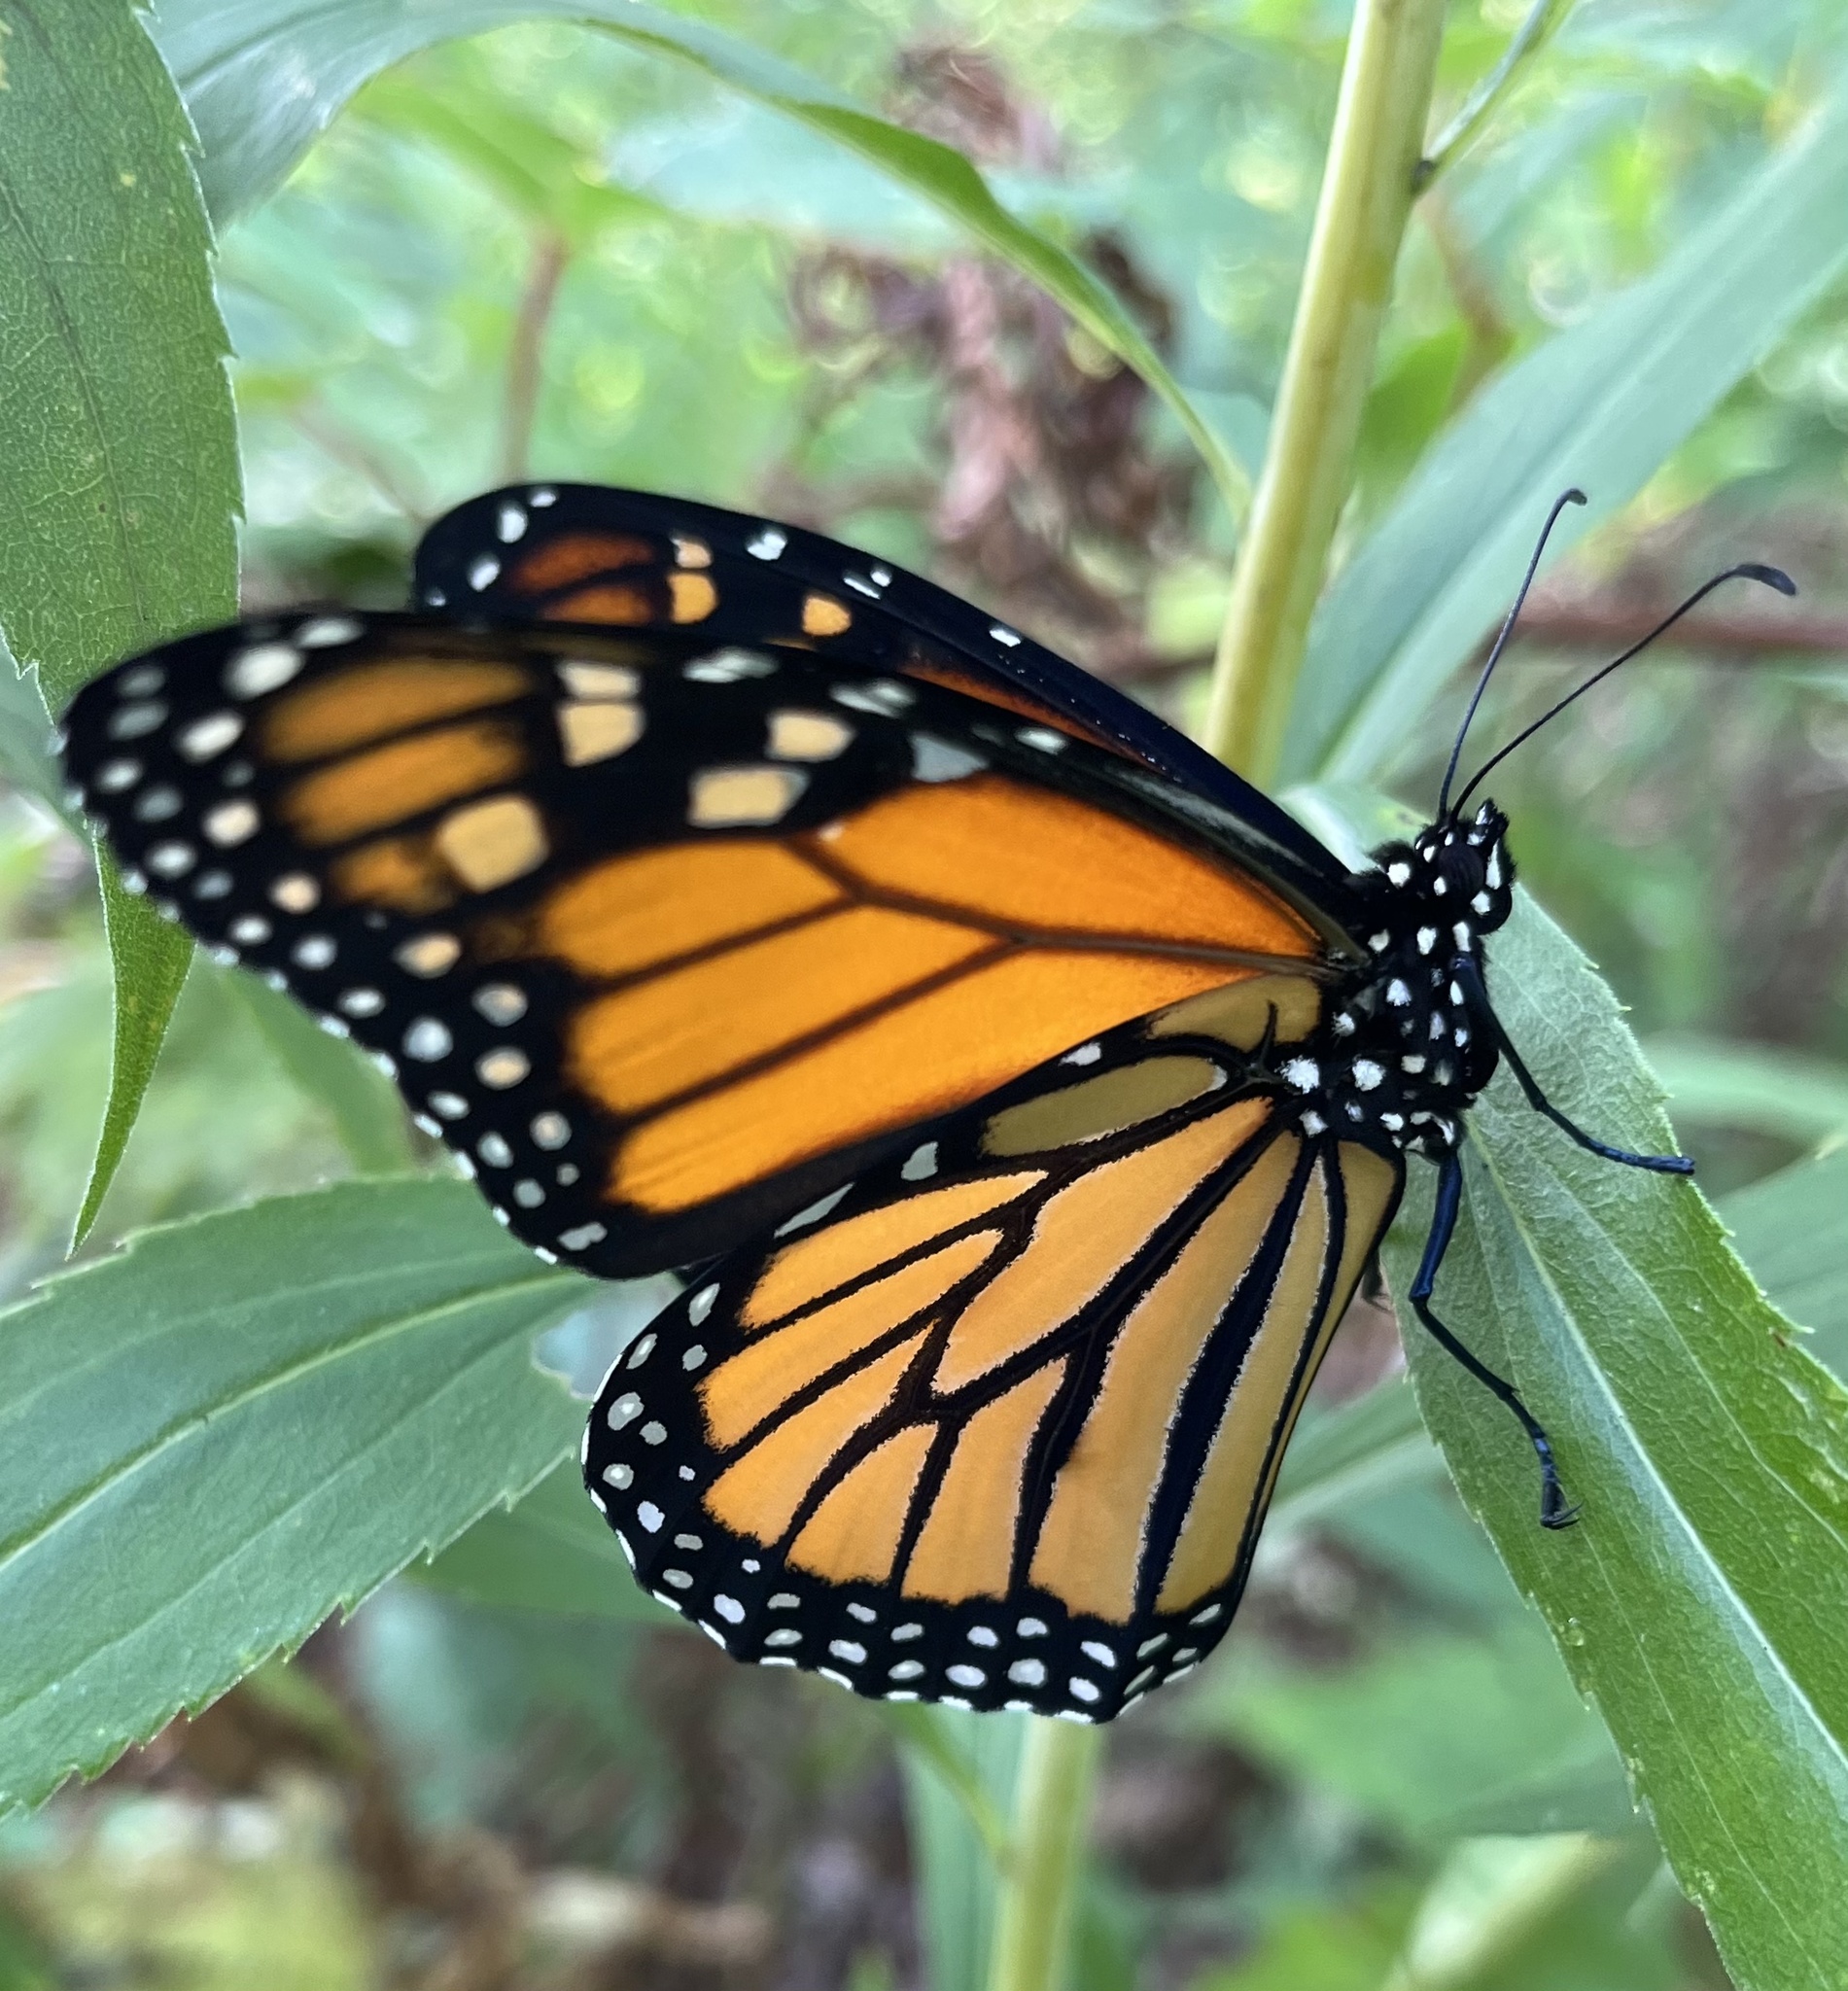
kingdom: Animalia
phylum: Arthropoda
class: Insecta
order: Lepidoptera
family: Nymphalidae
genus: Danaus
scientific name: Danaus plexippus
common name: Monarch
